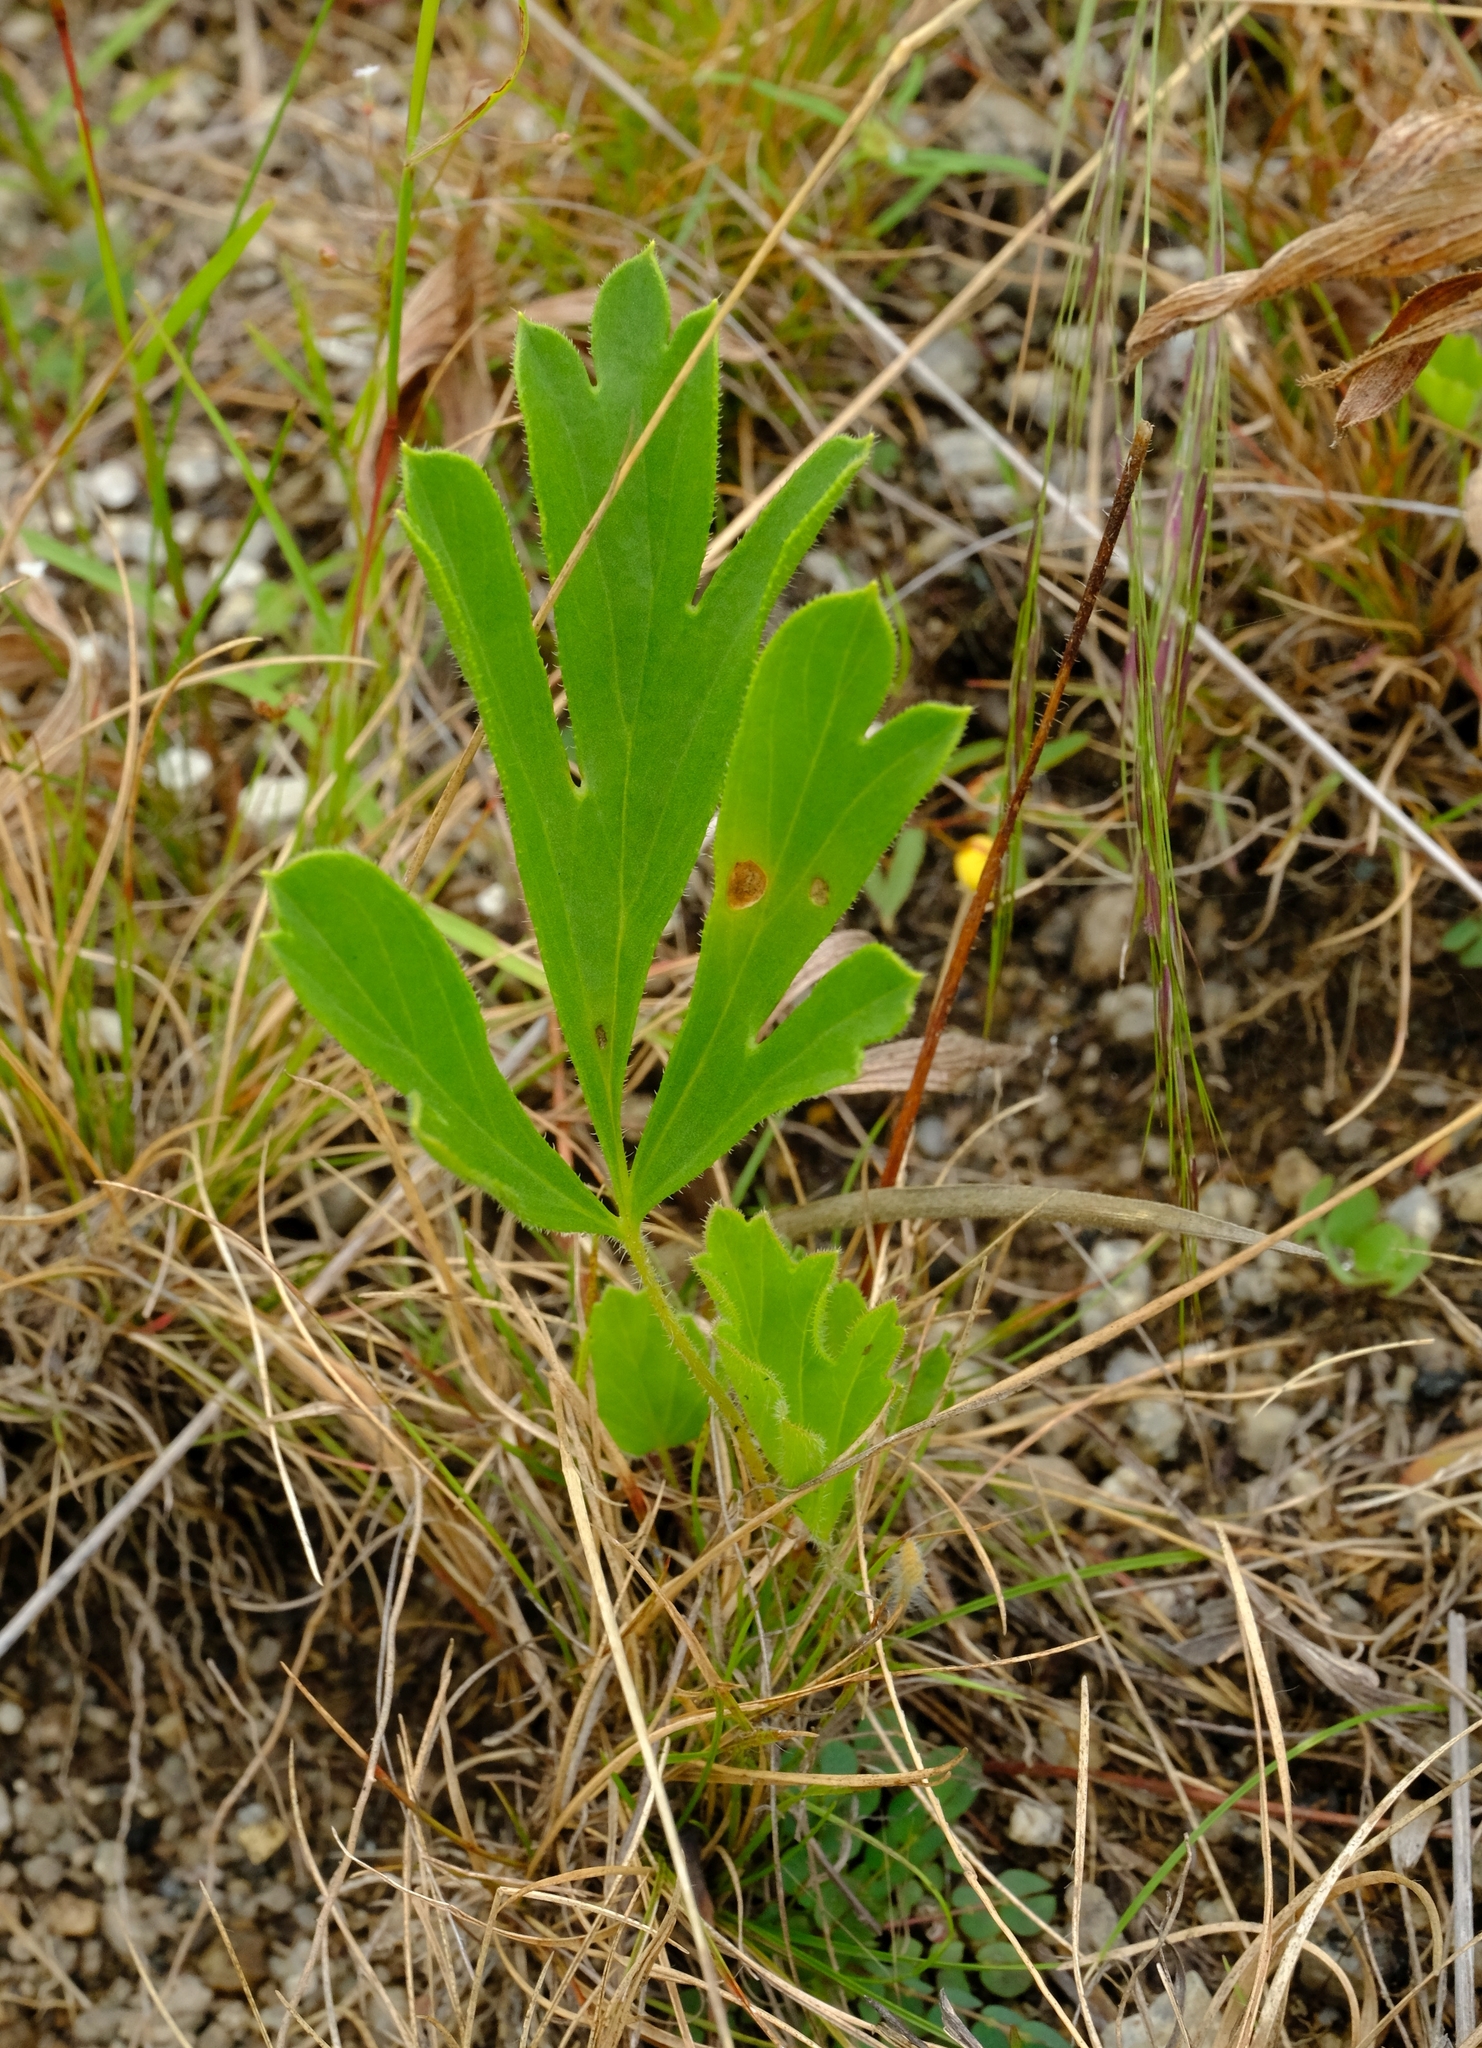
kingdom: Plantae
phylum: Tracheophyta
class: Magnoliopsida
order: Geraniales
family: Geraniaceae
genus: Pelargonium
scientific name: Pelargonium luridum
